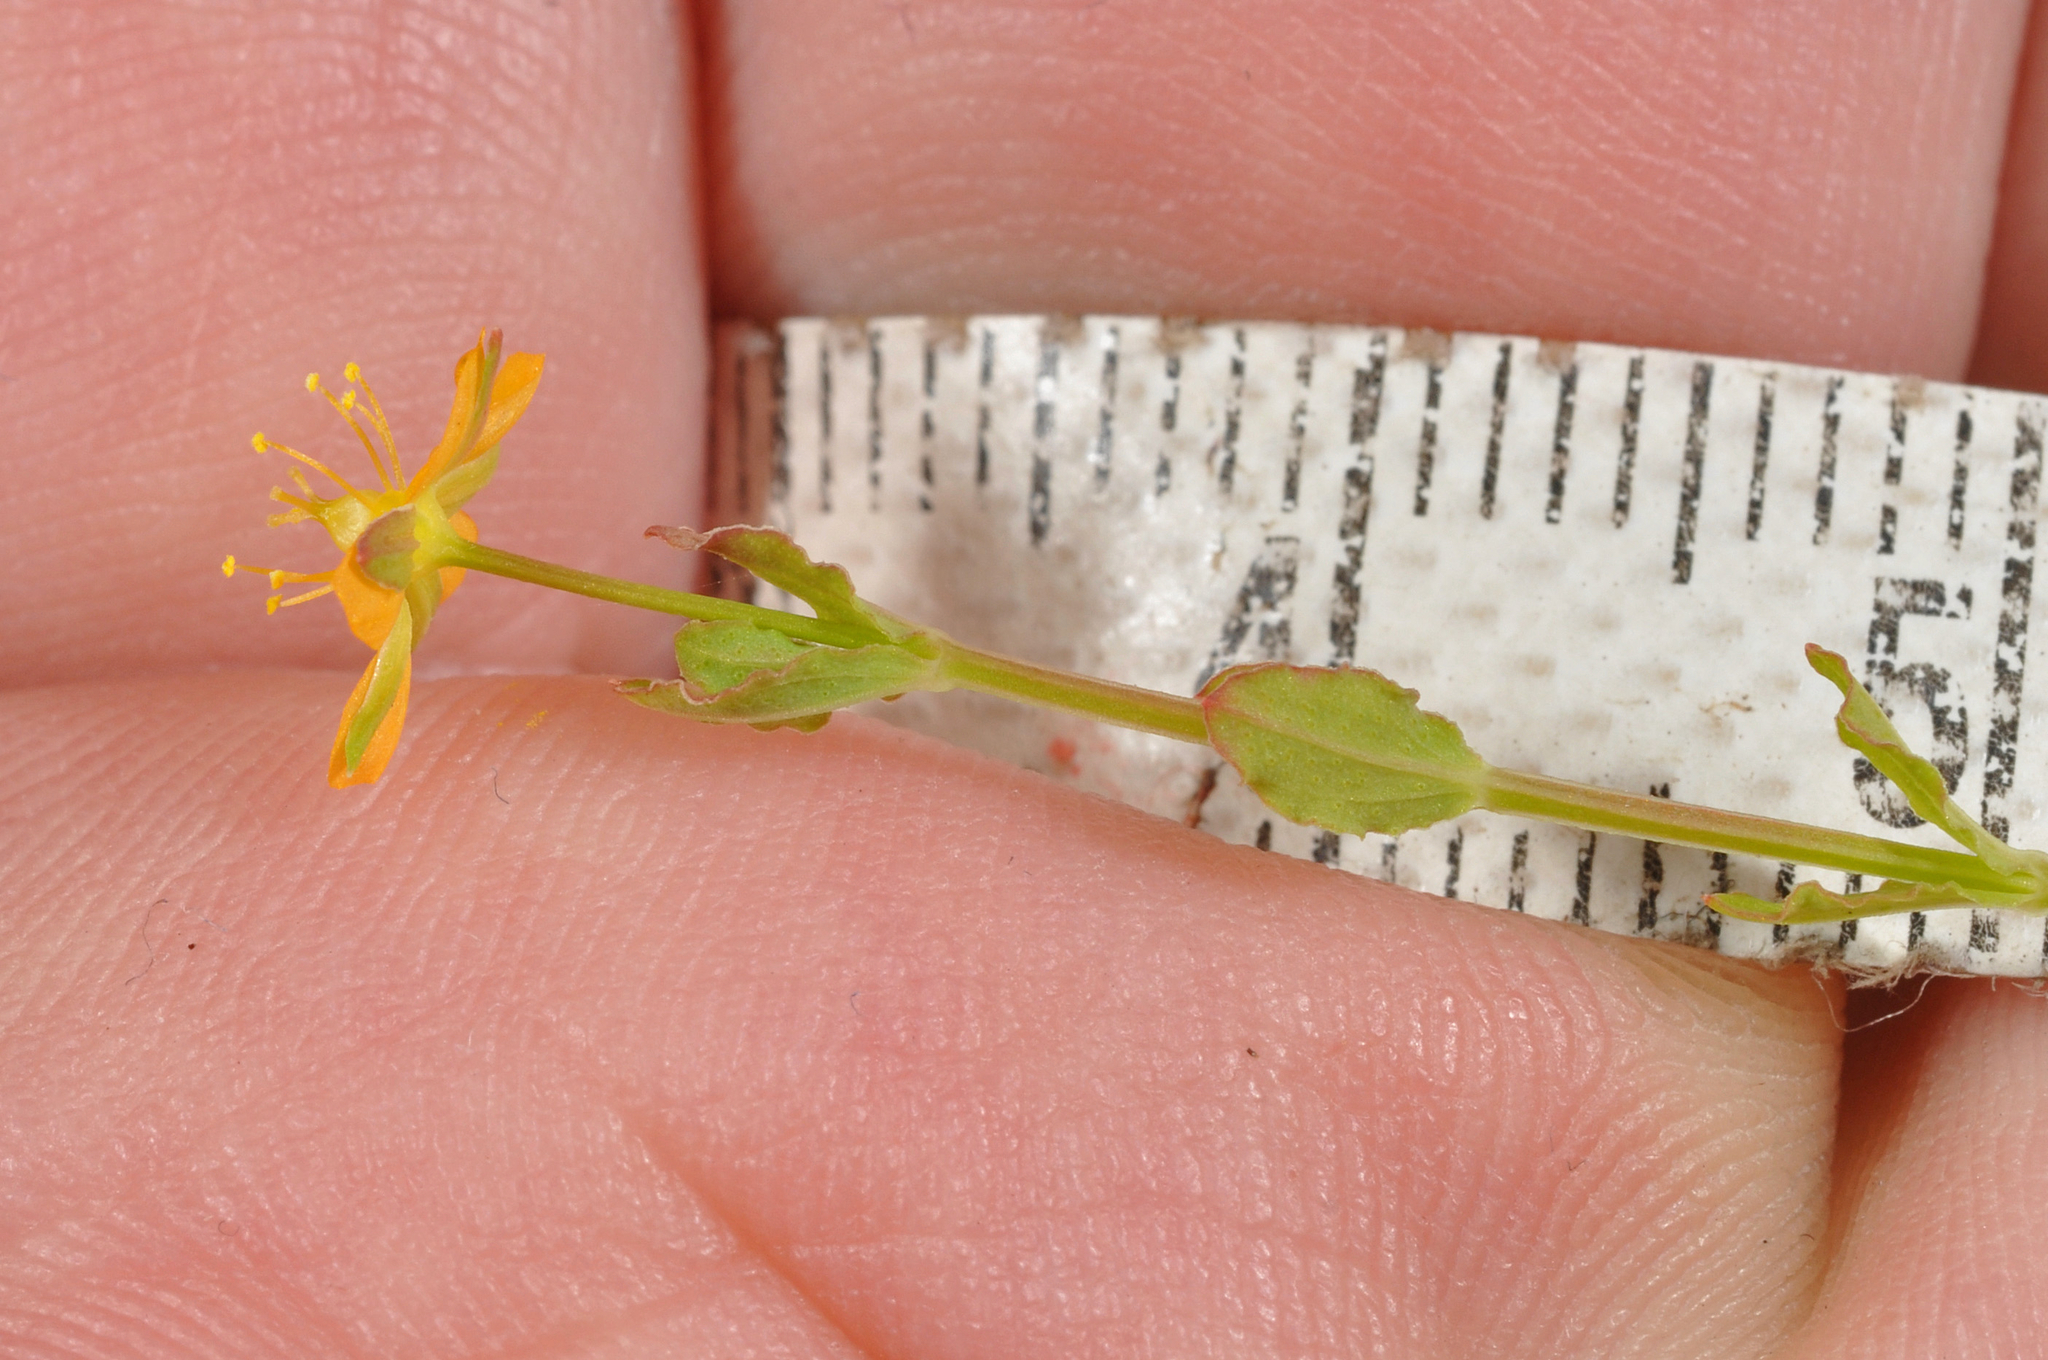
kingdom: Plantae
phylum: Tracheophyta
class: Magnoliopsida
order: Malpighiales
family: Hypericaceae
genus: Hypericum
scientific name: Hypericum involutum
